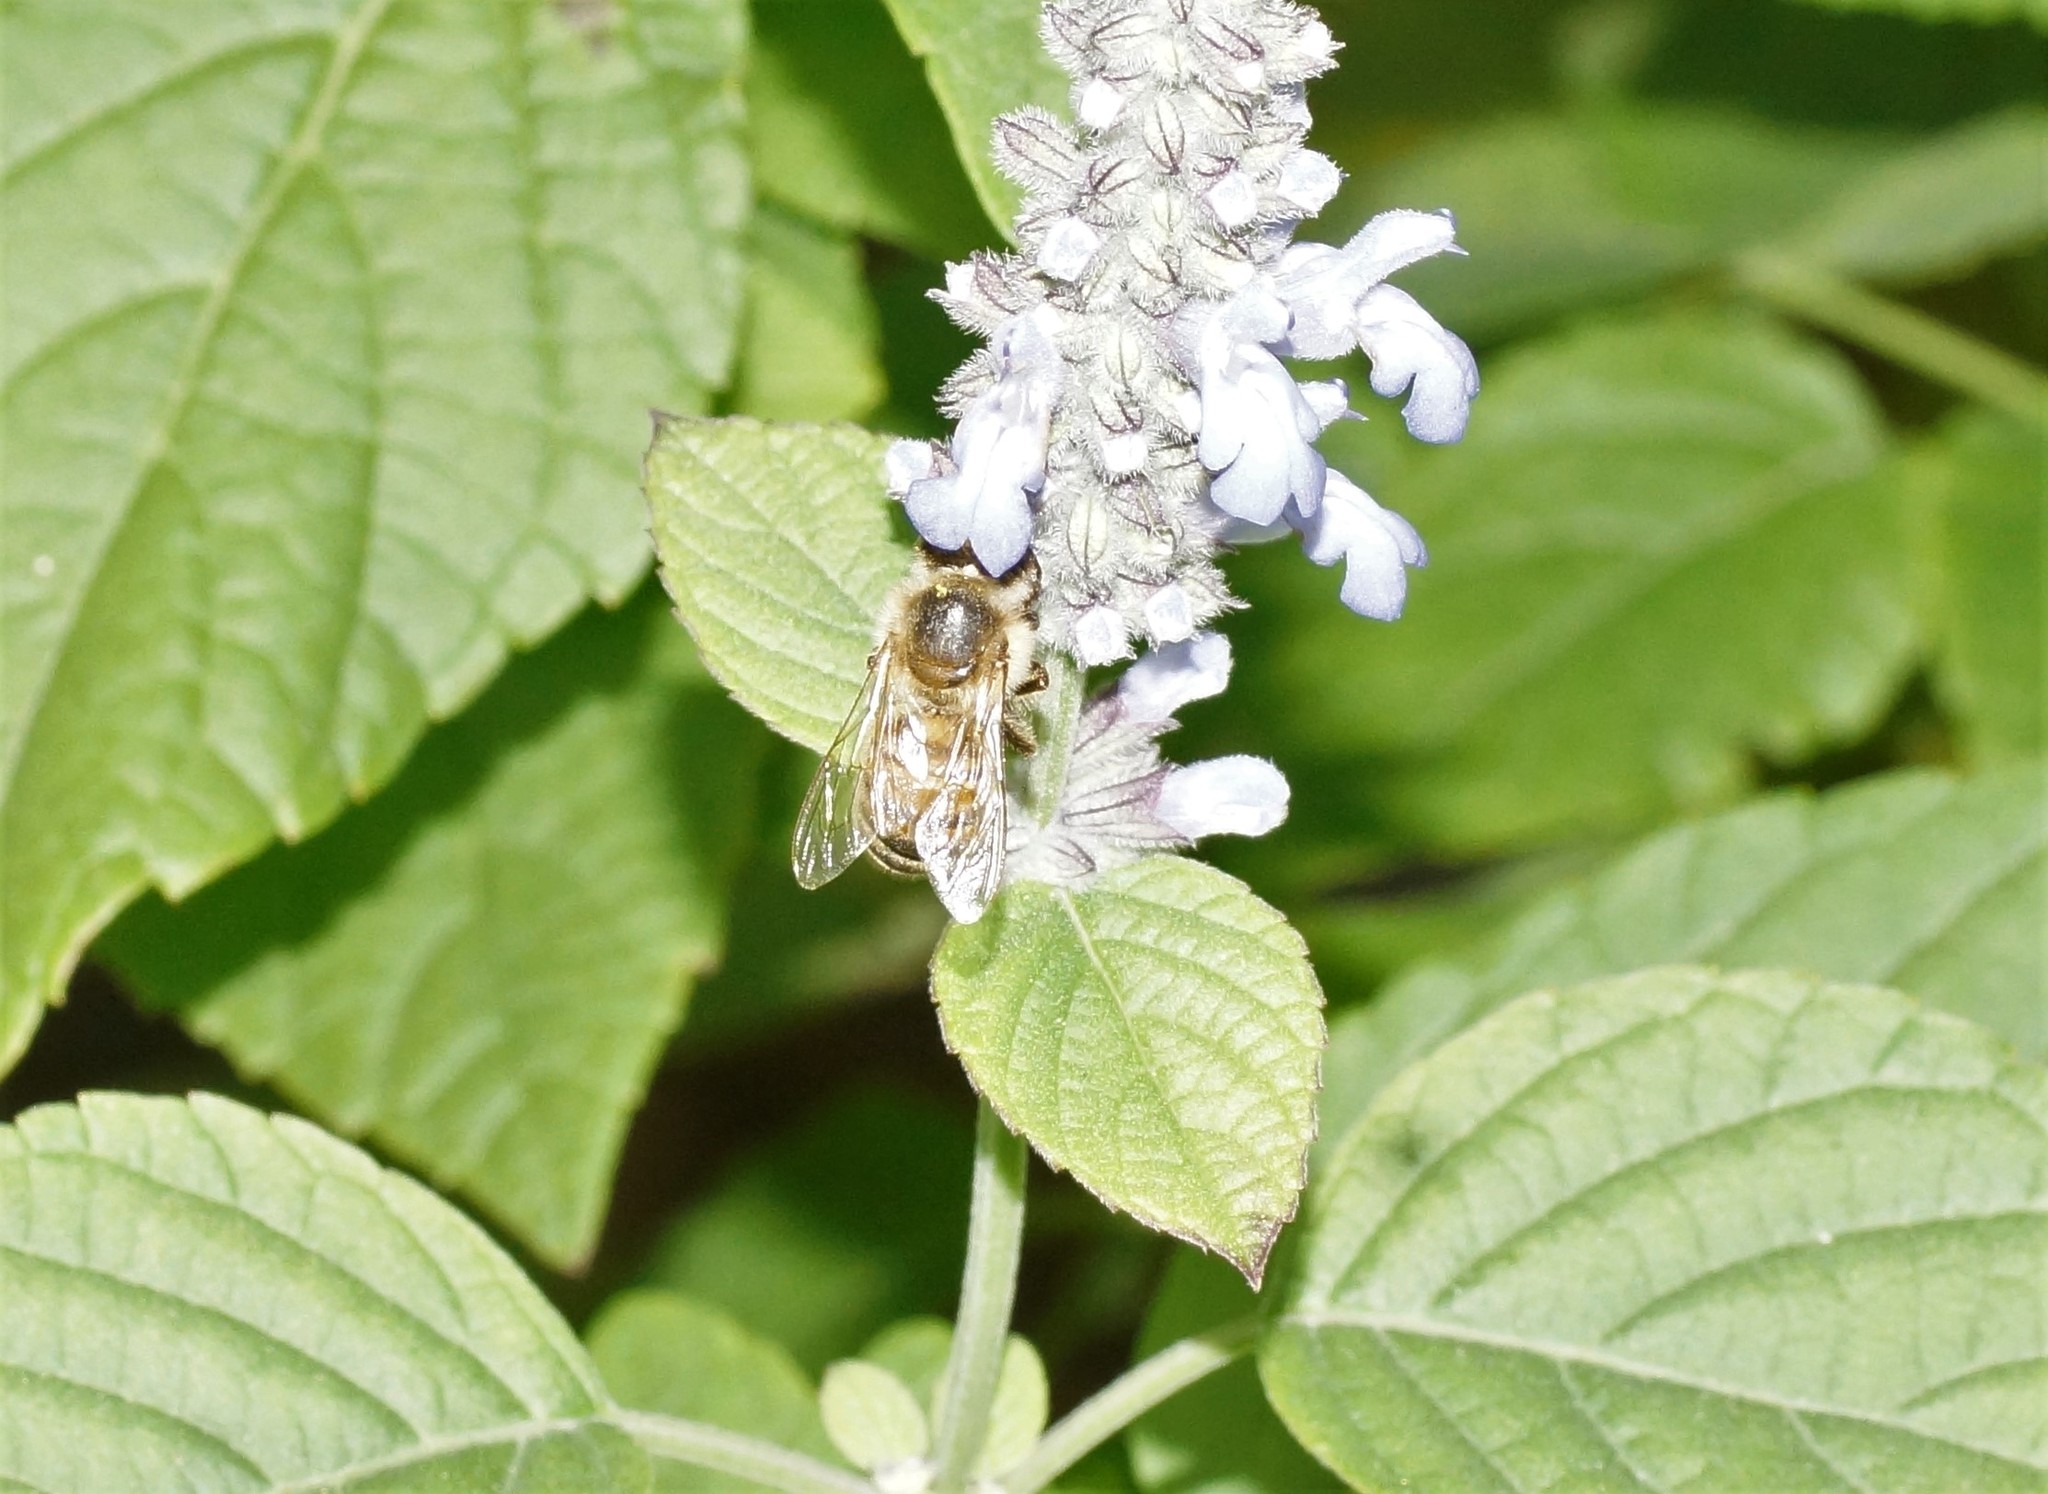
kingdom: Animalia
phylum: Arthropoda
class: Insecta
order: Hymenoptera
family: Apidae
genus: Apis
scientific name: Apis mellifera
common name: Honey bee
